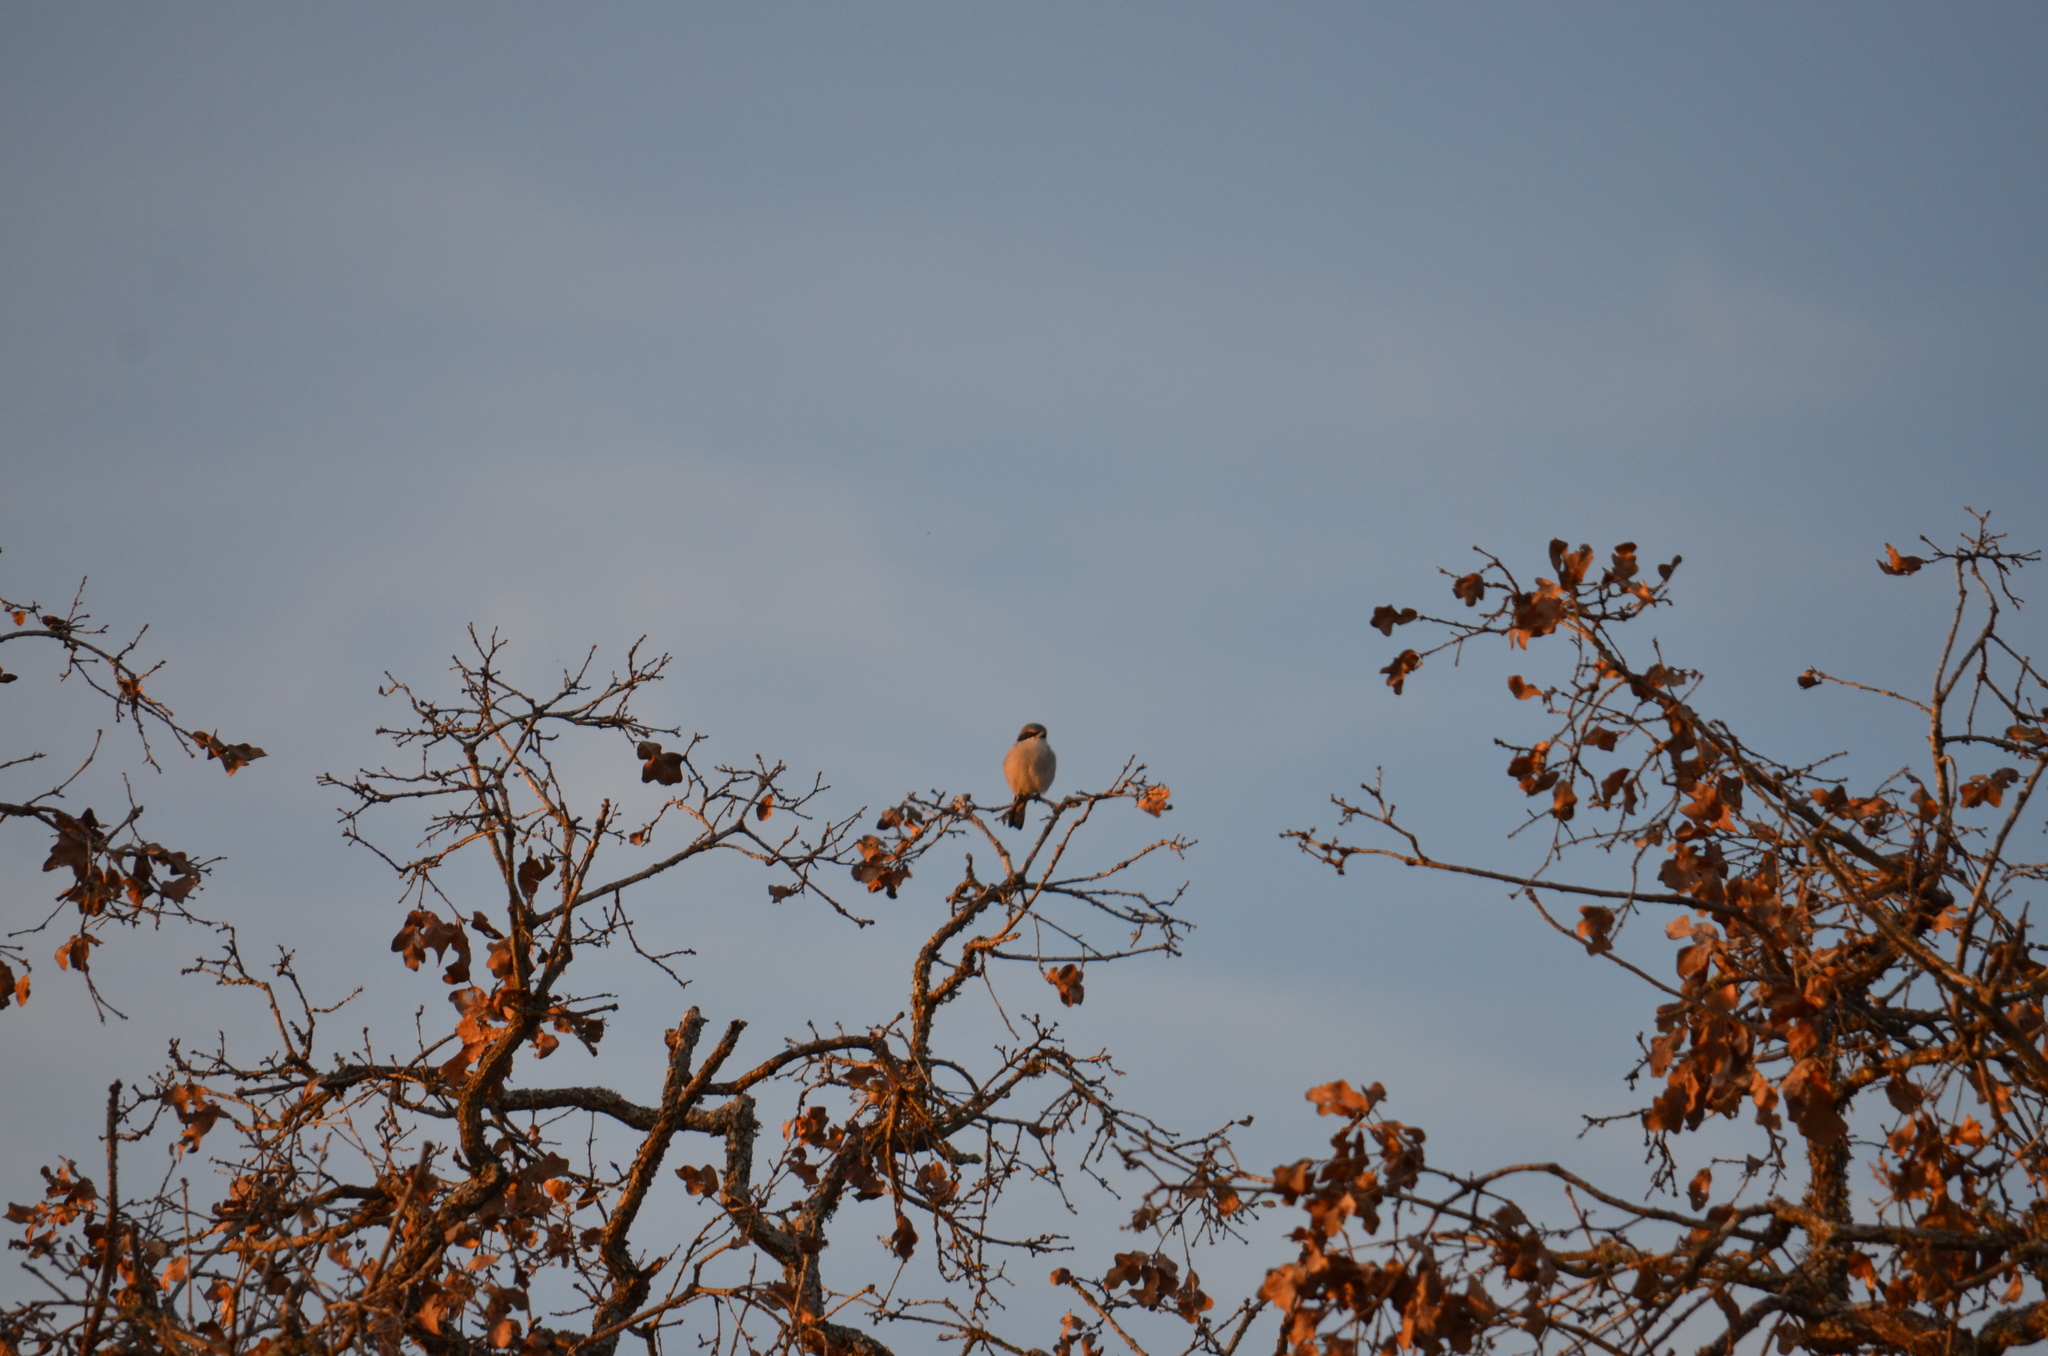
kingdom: Animalia
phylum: Chordata
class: Aves
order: Passeriformes
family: Laniidae
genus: Lanius
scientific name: Lanius ludovicianus
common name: Loggerhead shrike
